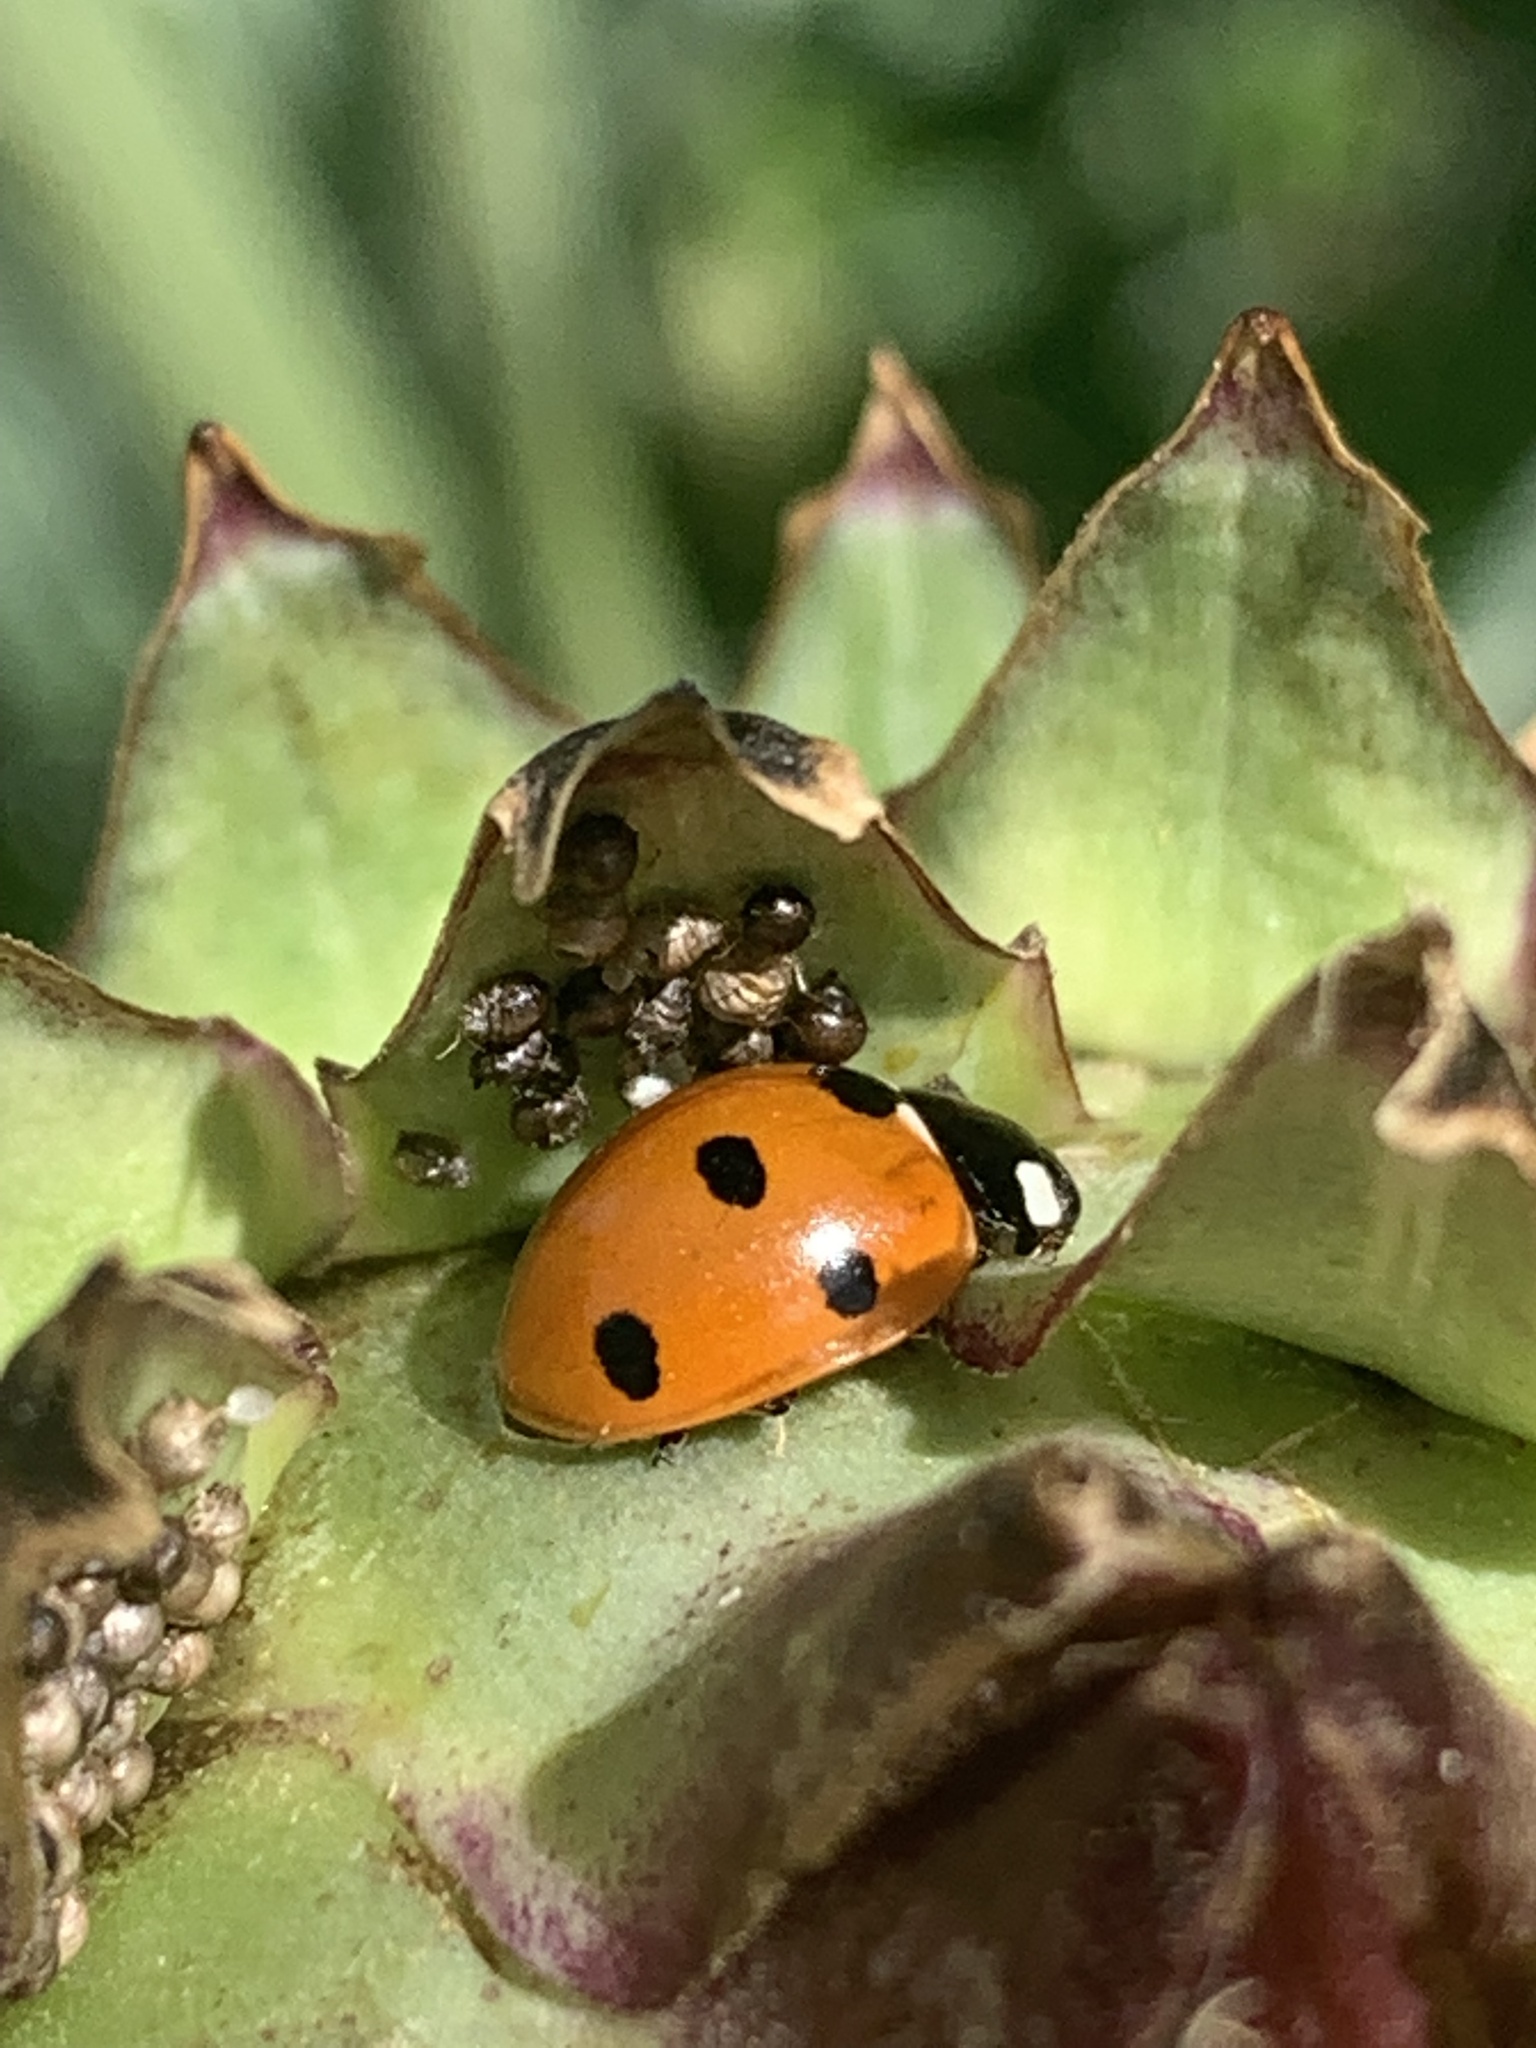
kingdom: Animalia
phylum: Arthropoda
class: Insecta
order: Coleoptera
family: Coccinellidae
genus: Coccinella
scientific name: Coccinella septempunctata
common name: Sevenspotted lady beetle
